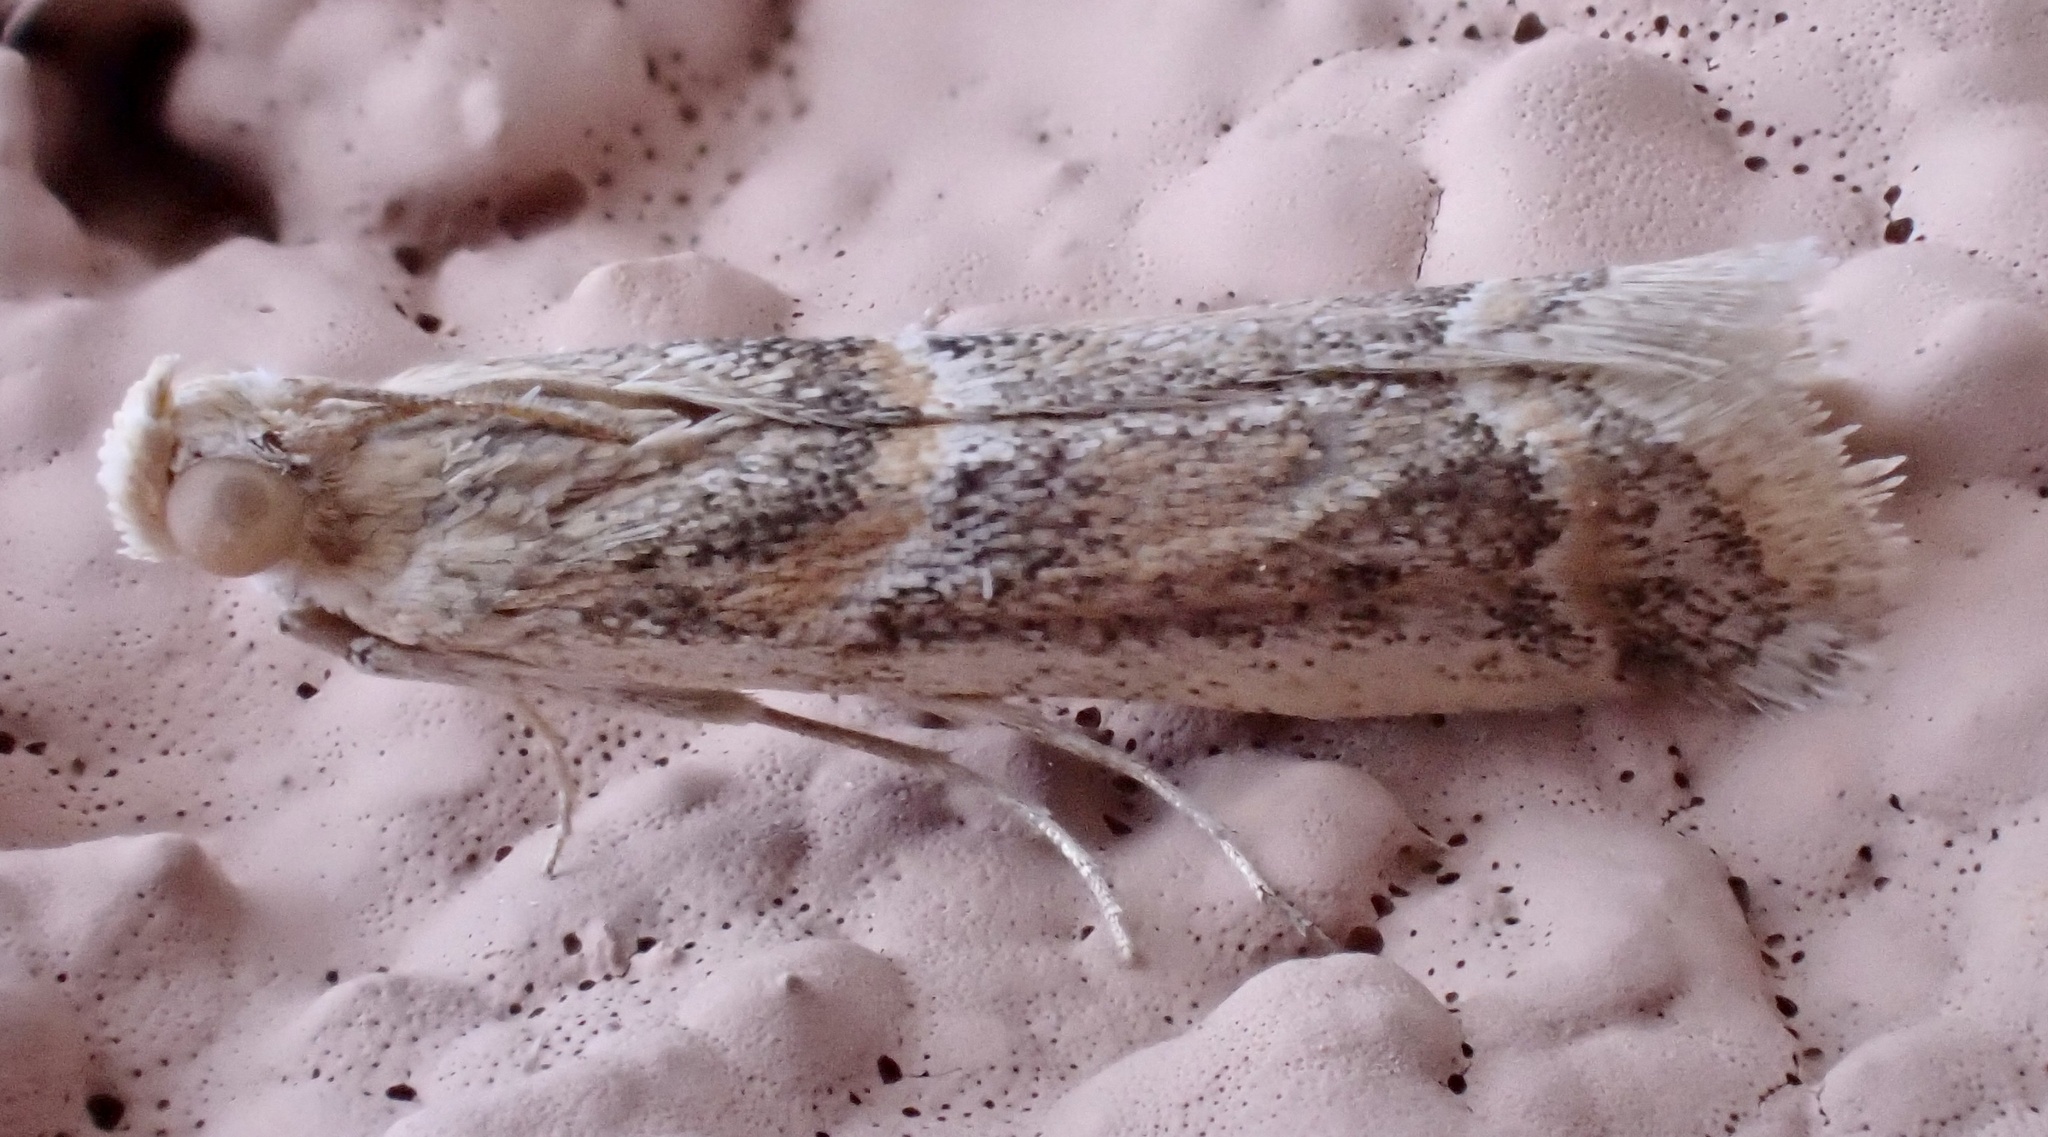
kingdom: Animalia
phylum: Arthropoda
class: Insecta
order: Lepidoptera
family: Pyralidae
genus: Ancylosis
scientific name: Ancylosis samaritanella
